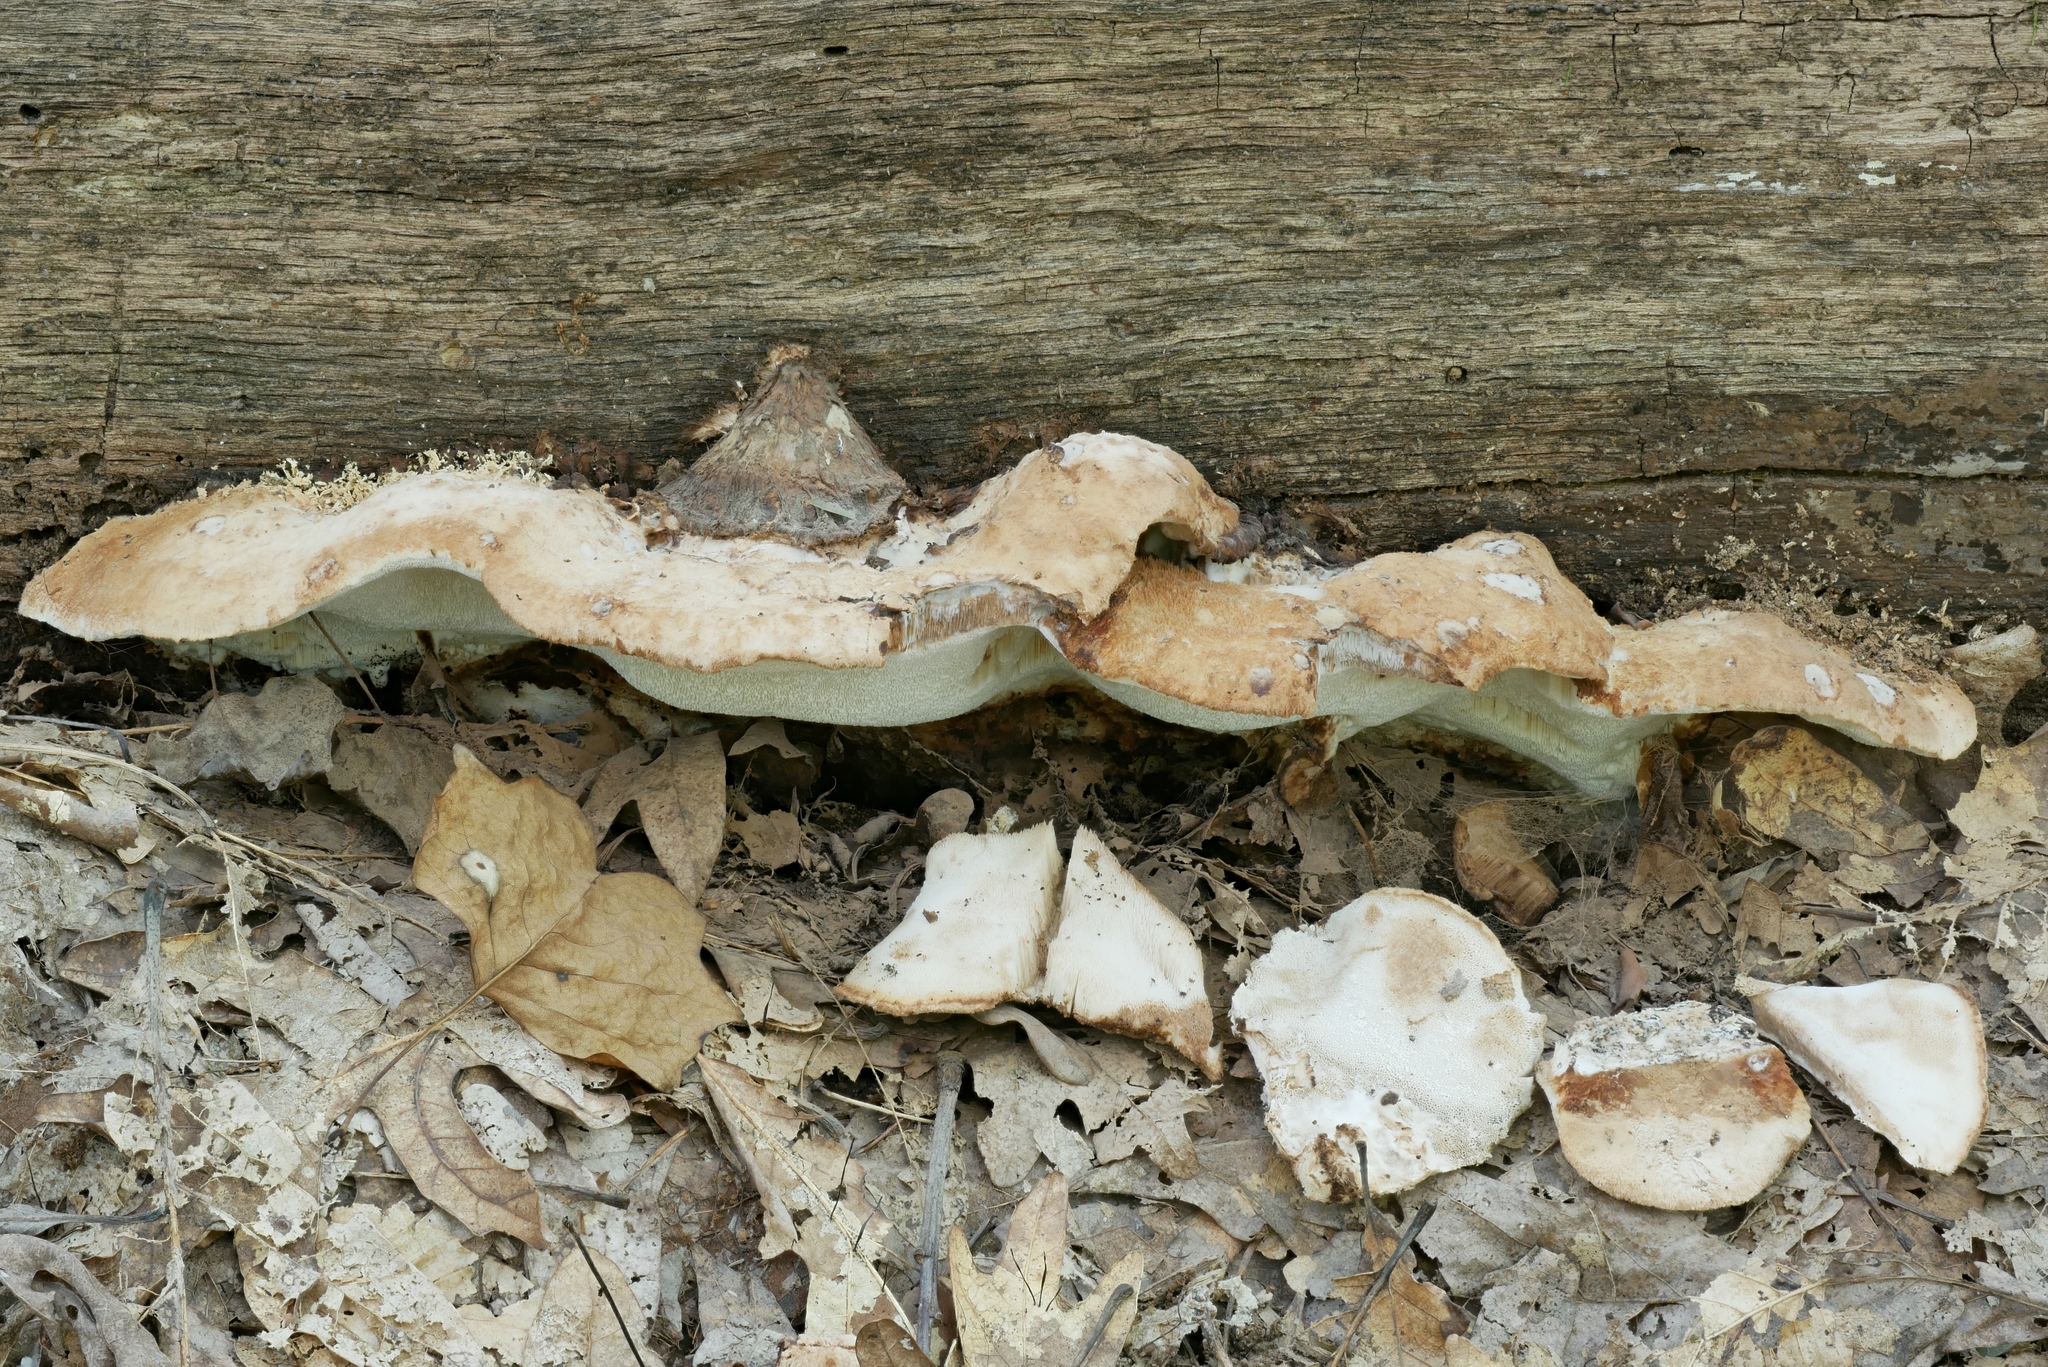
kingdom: Fungi
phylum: Basidiomycota
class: Agaricomycetes
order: Polyporales
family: Sarcoporiaceae
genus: Sarcoporia
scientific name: Sarcoporia longitubulata
